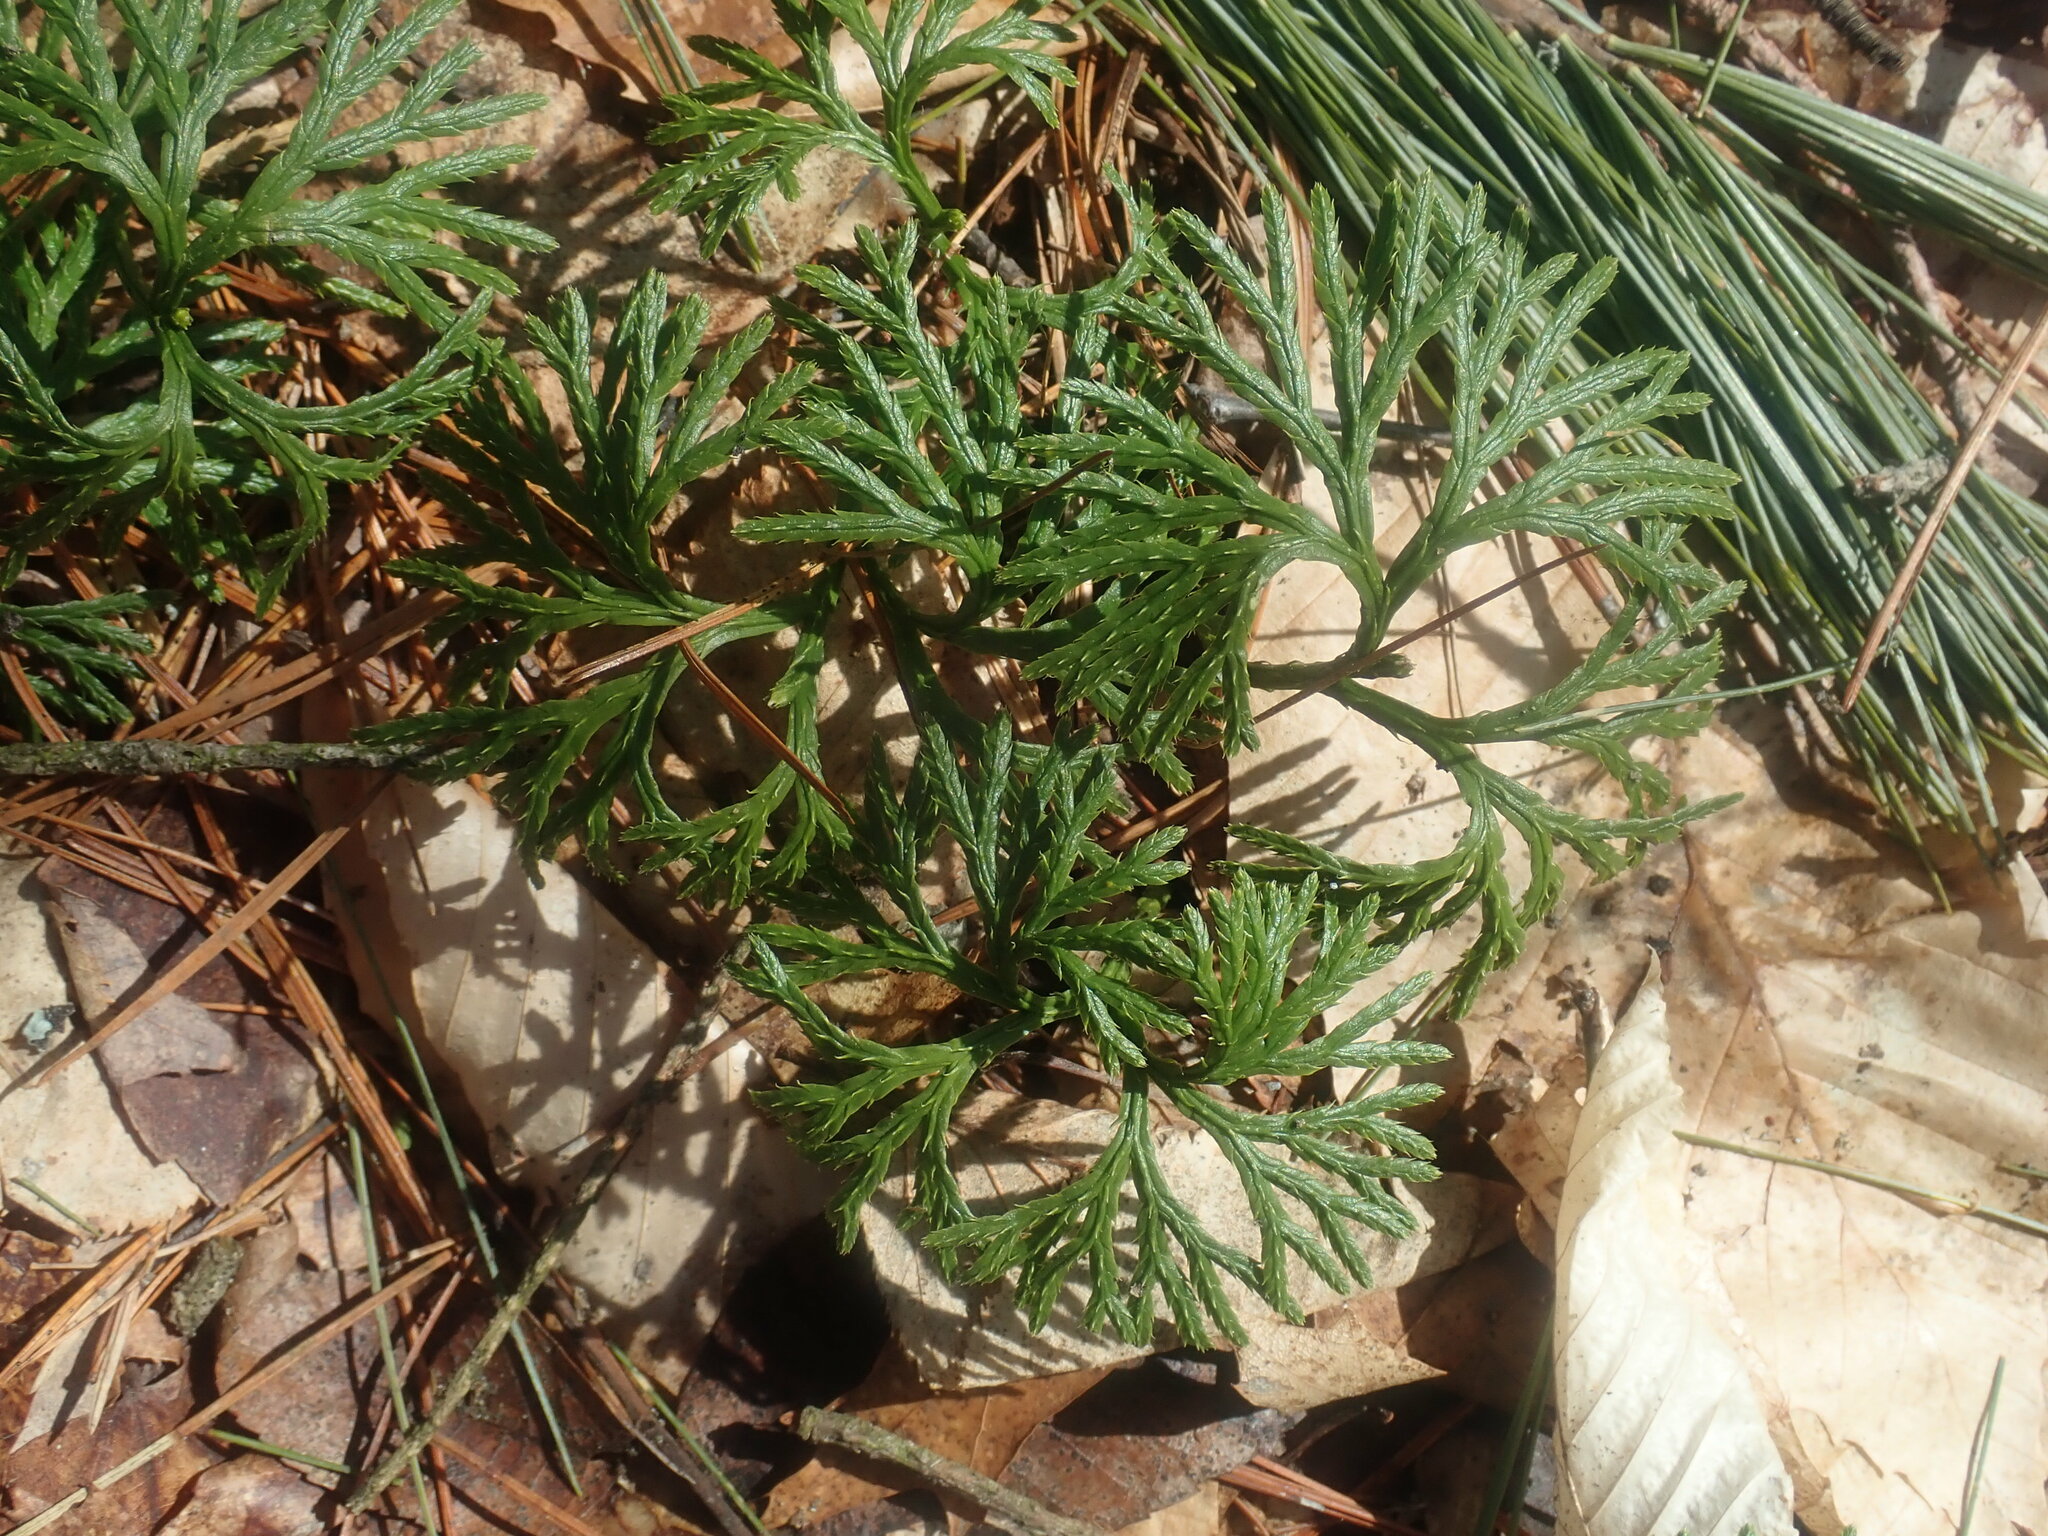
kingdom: Plantae
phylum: Tracheophyta
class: Lycopodiopsida
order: Lycopodiales
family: Lycopodiaceae
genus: Diphasiastrum
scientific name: Diphasiastrum digitatum
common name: Southern running-pine
